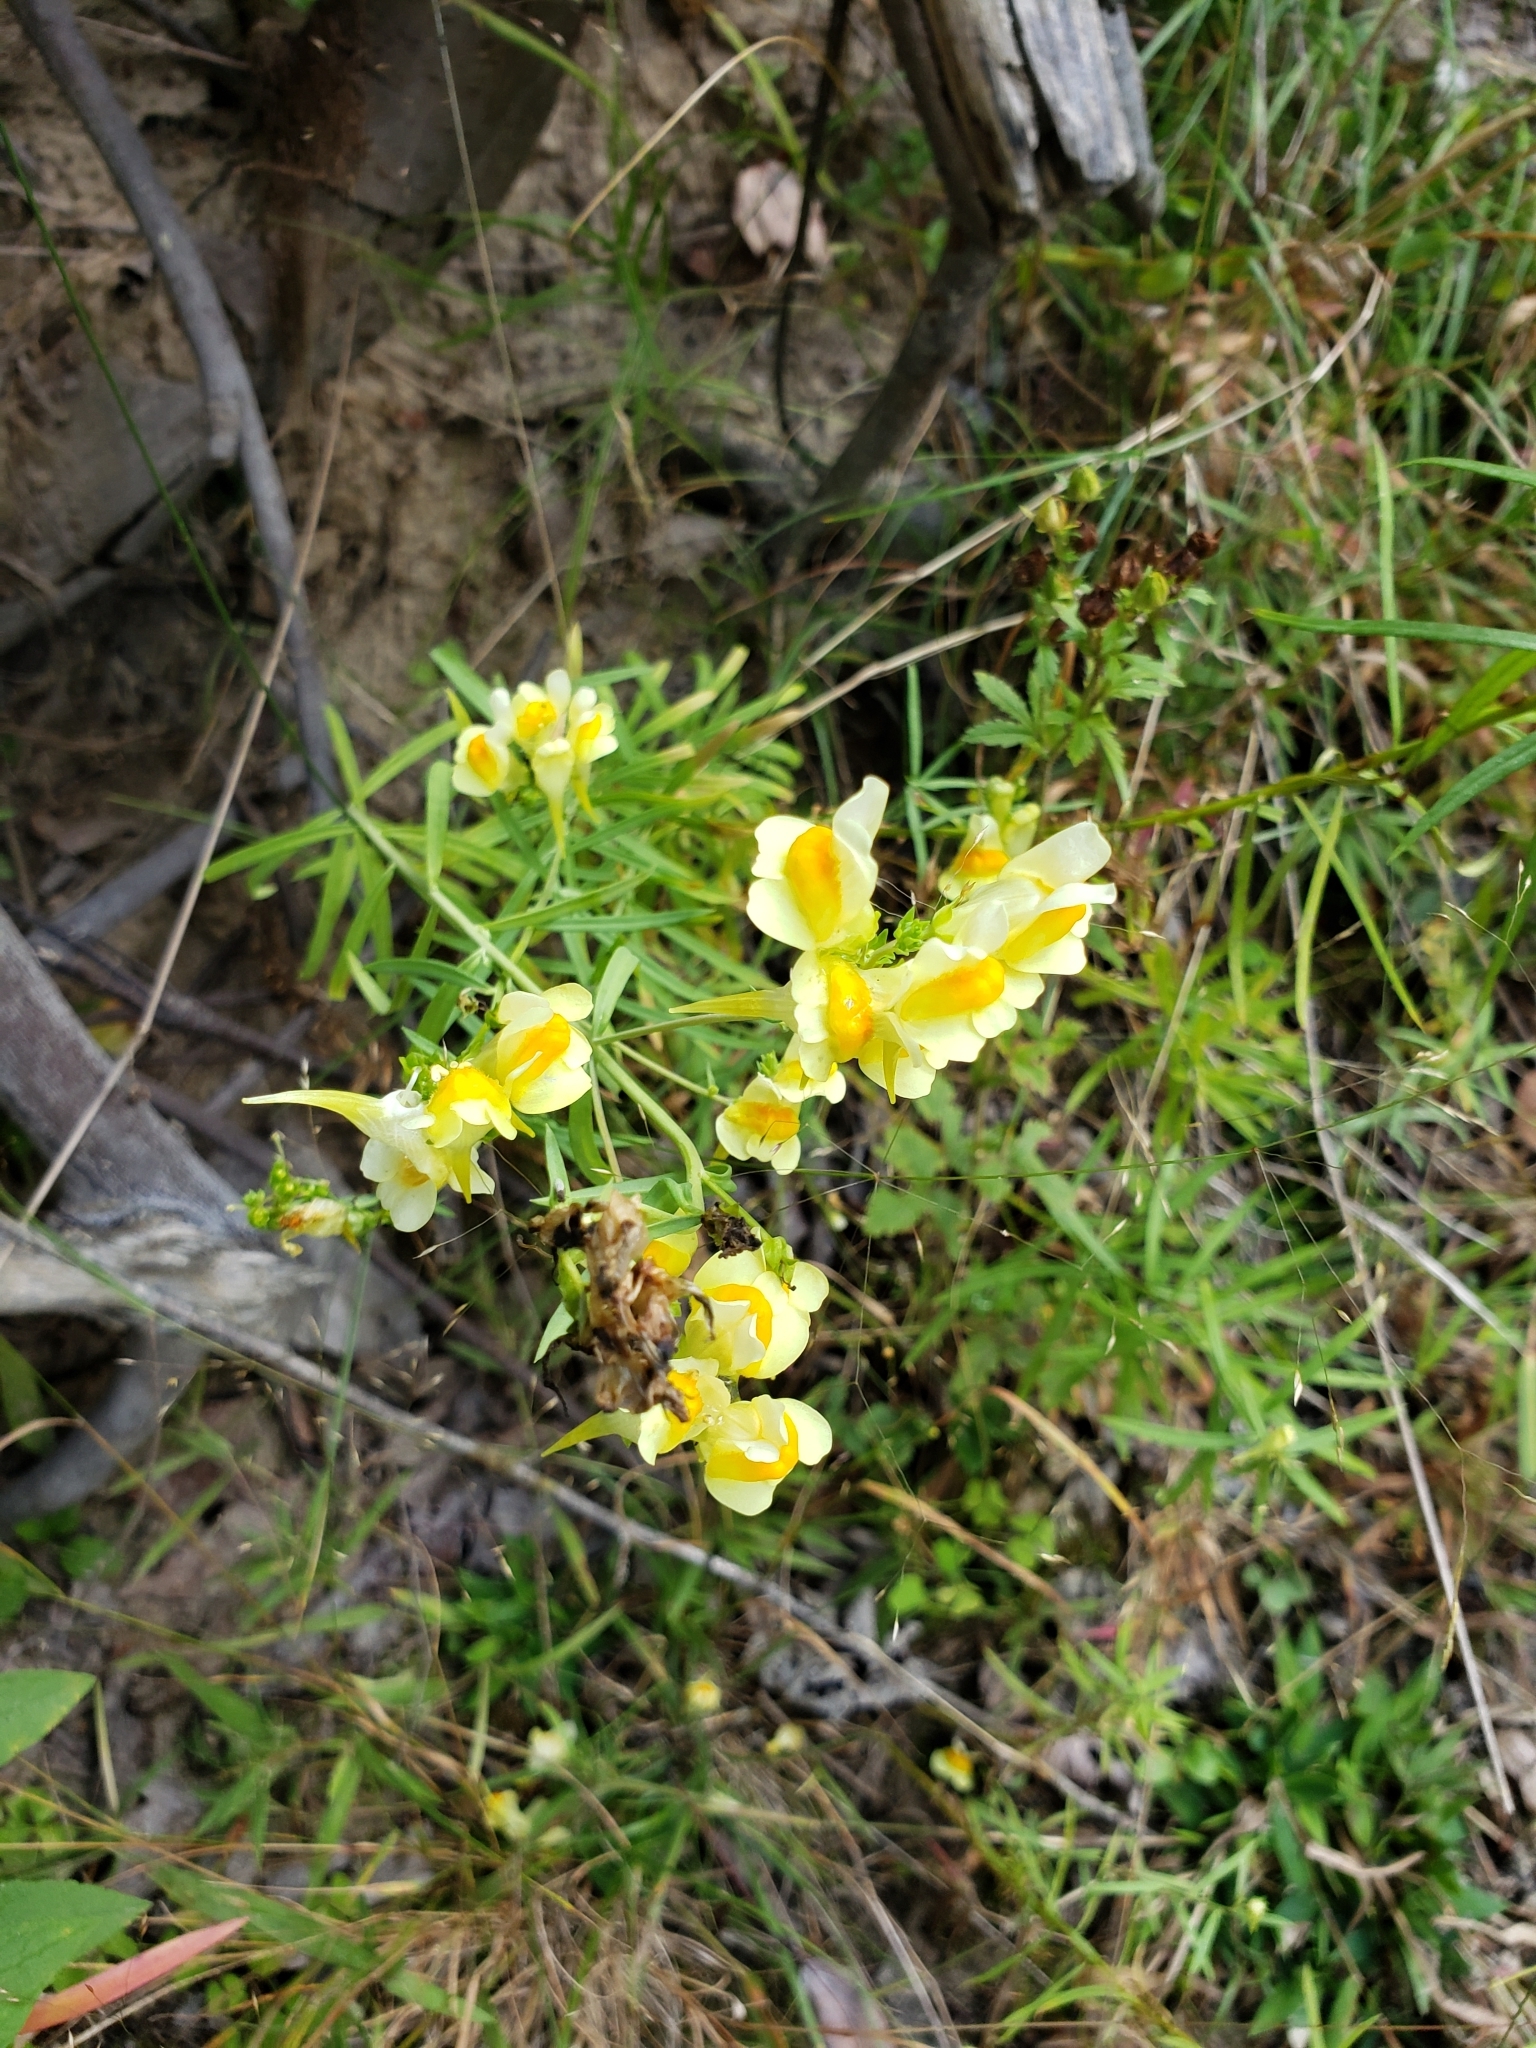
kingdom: Plantae
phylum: Tracheophyta
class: Magnoliopsida
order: Lamiales
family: Plantaginaceae
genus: Linaria
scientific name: Linaria vulgaris
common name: Butter and eggs
